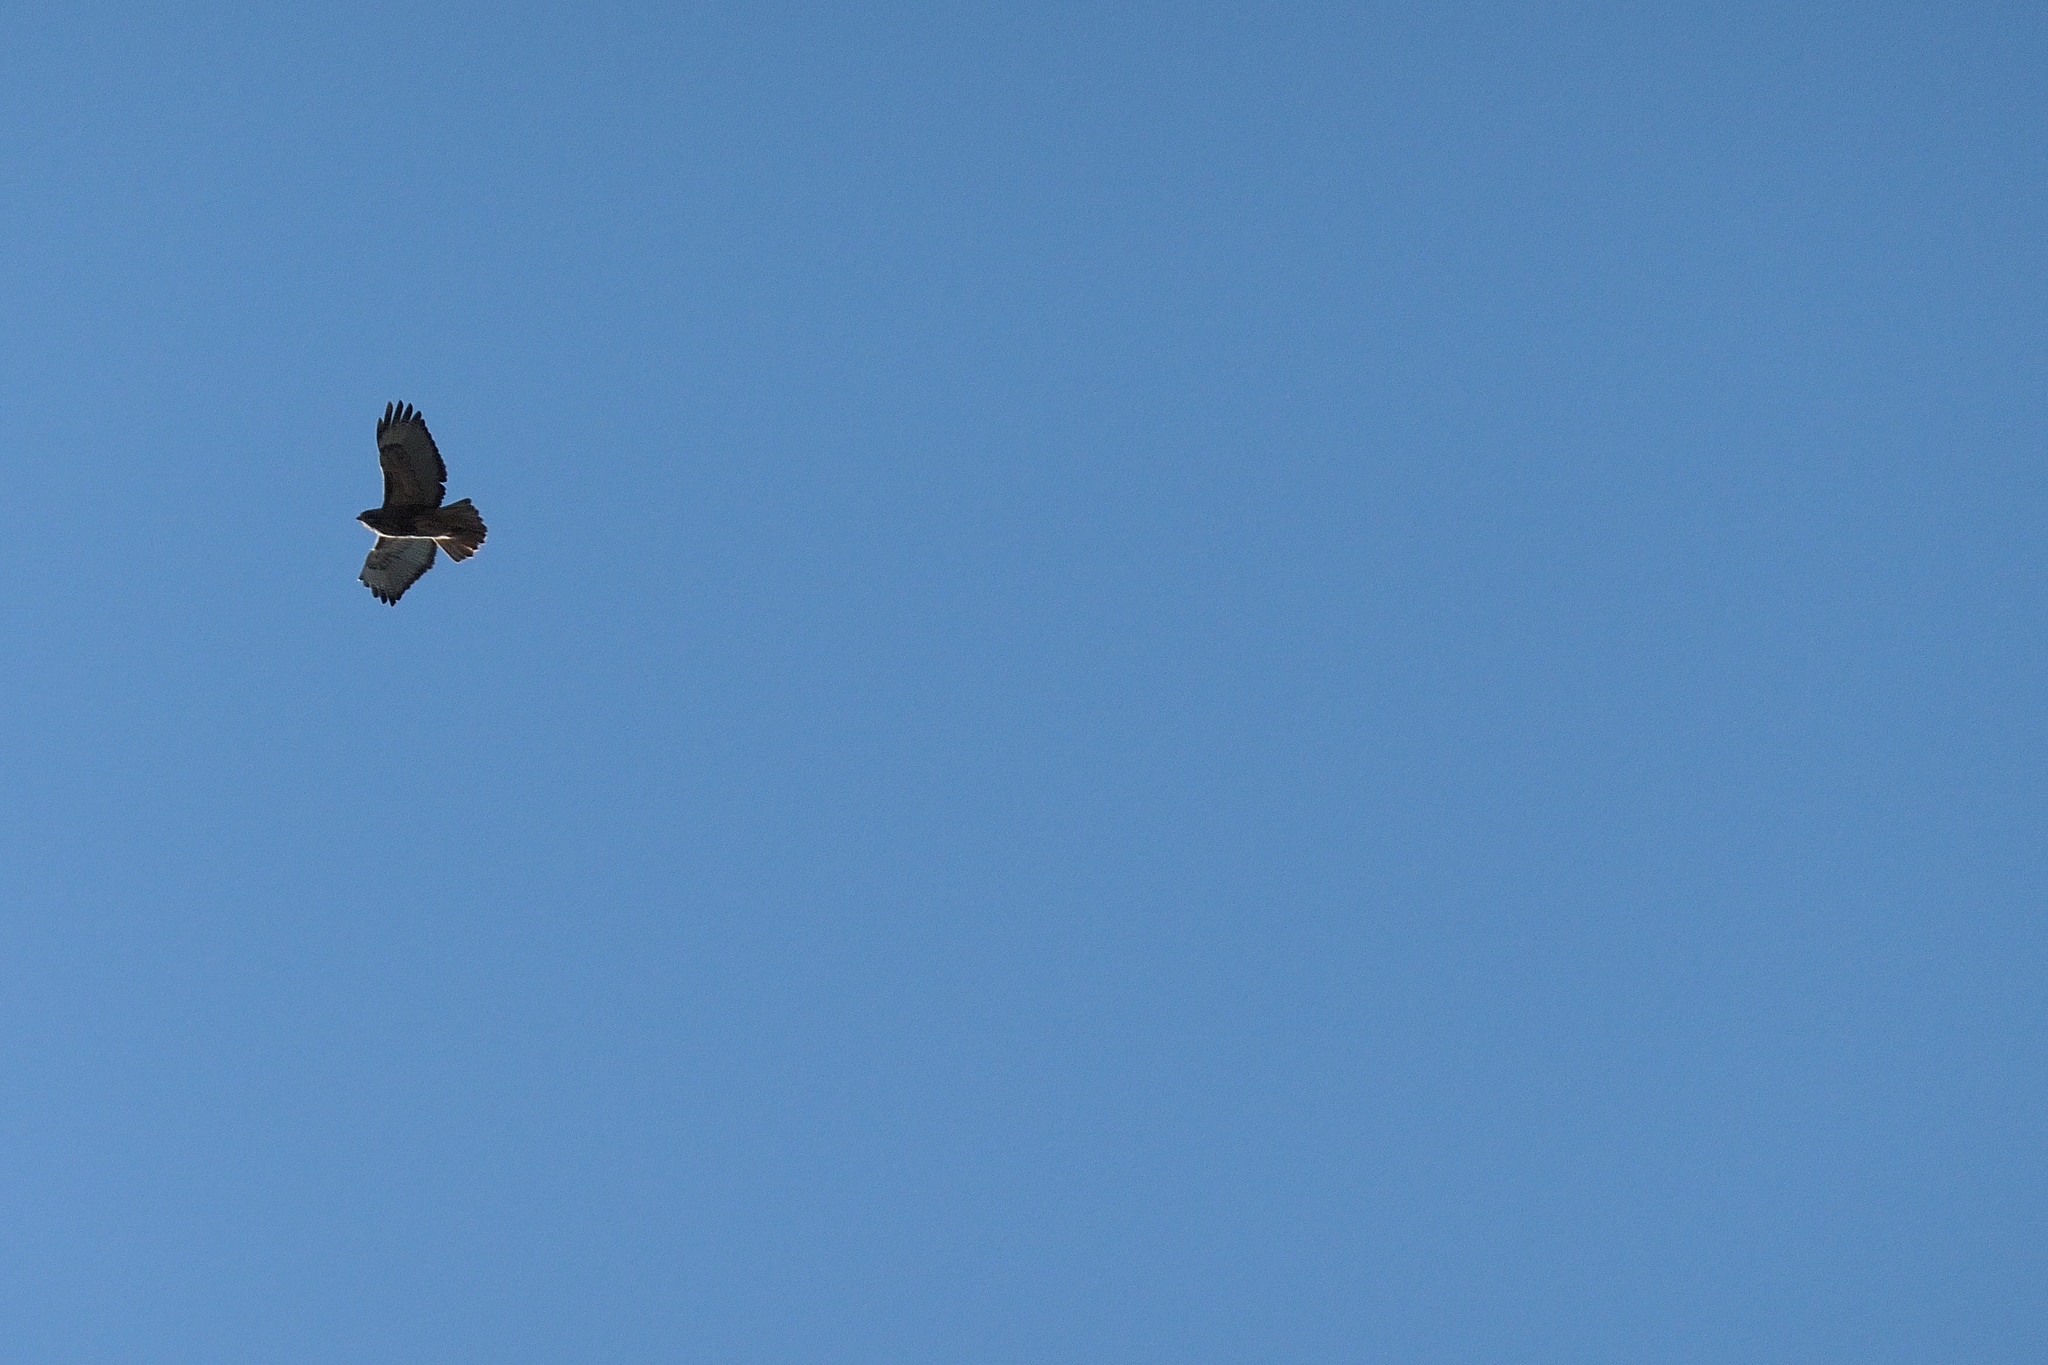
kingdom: Animalia
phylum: Chordata
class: Aves
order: Accipitriformes
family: Accipitridae
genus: Buteo
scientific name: Buteo jamaicensis
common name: Red-tailed hawk
